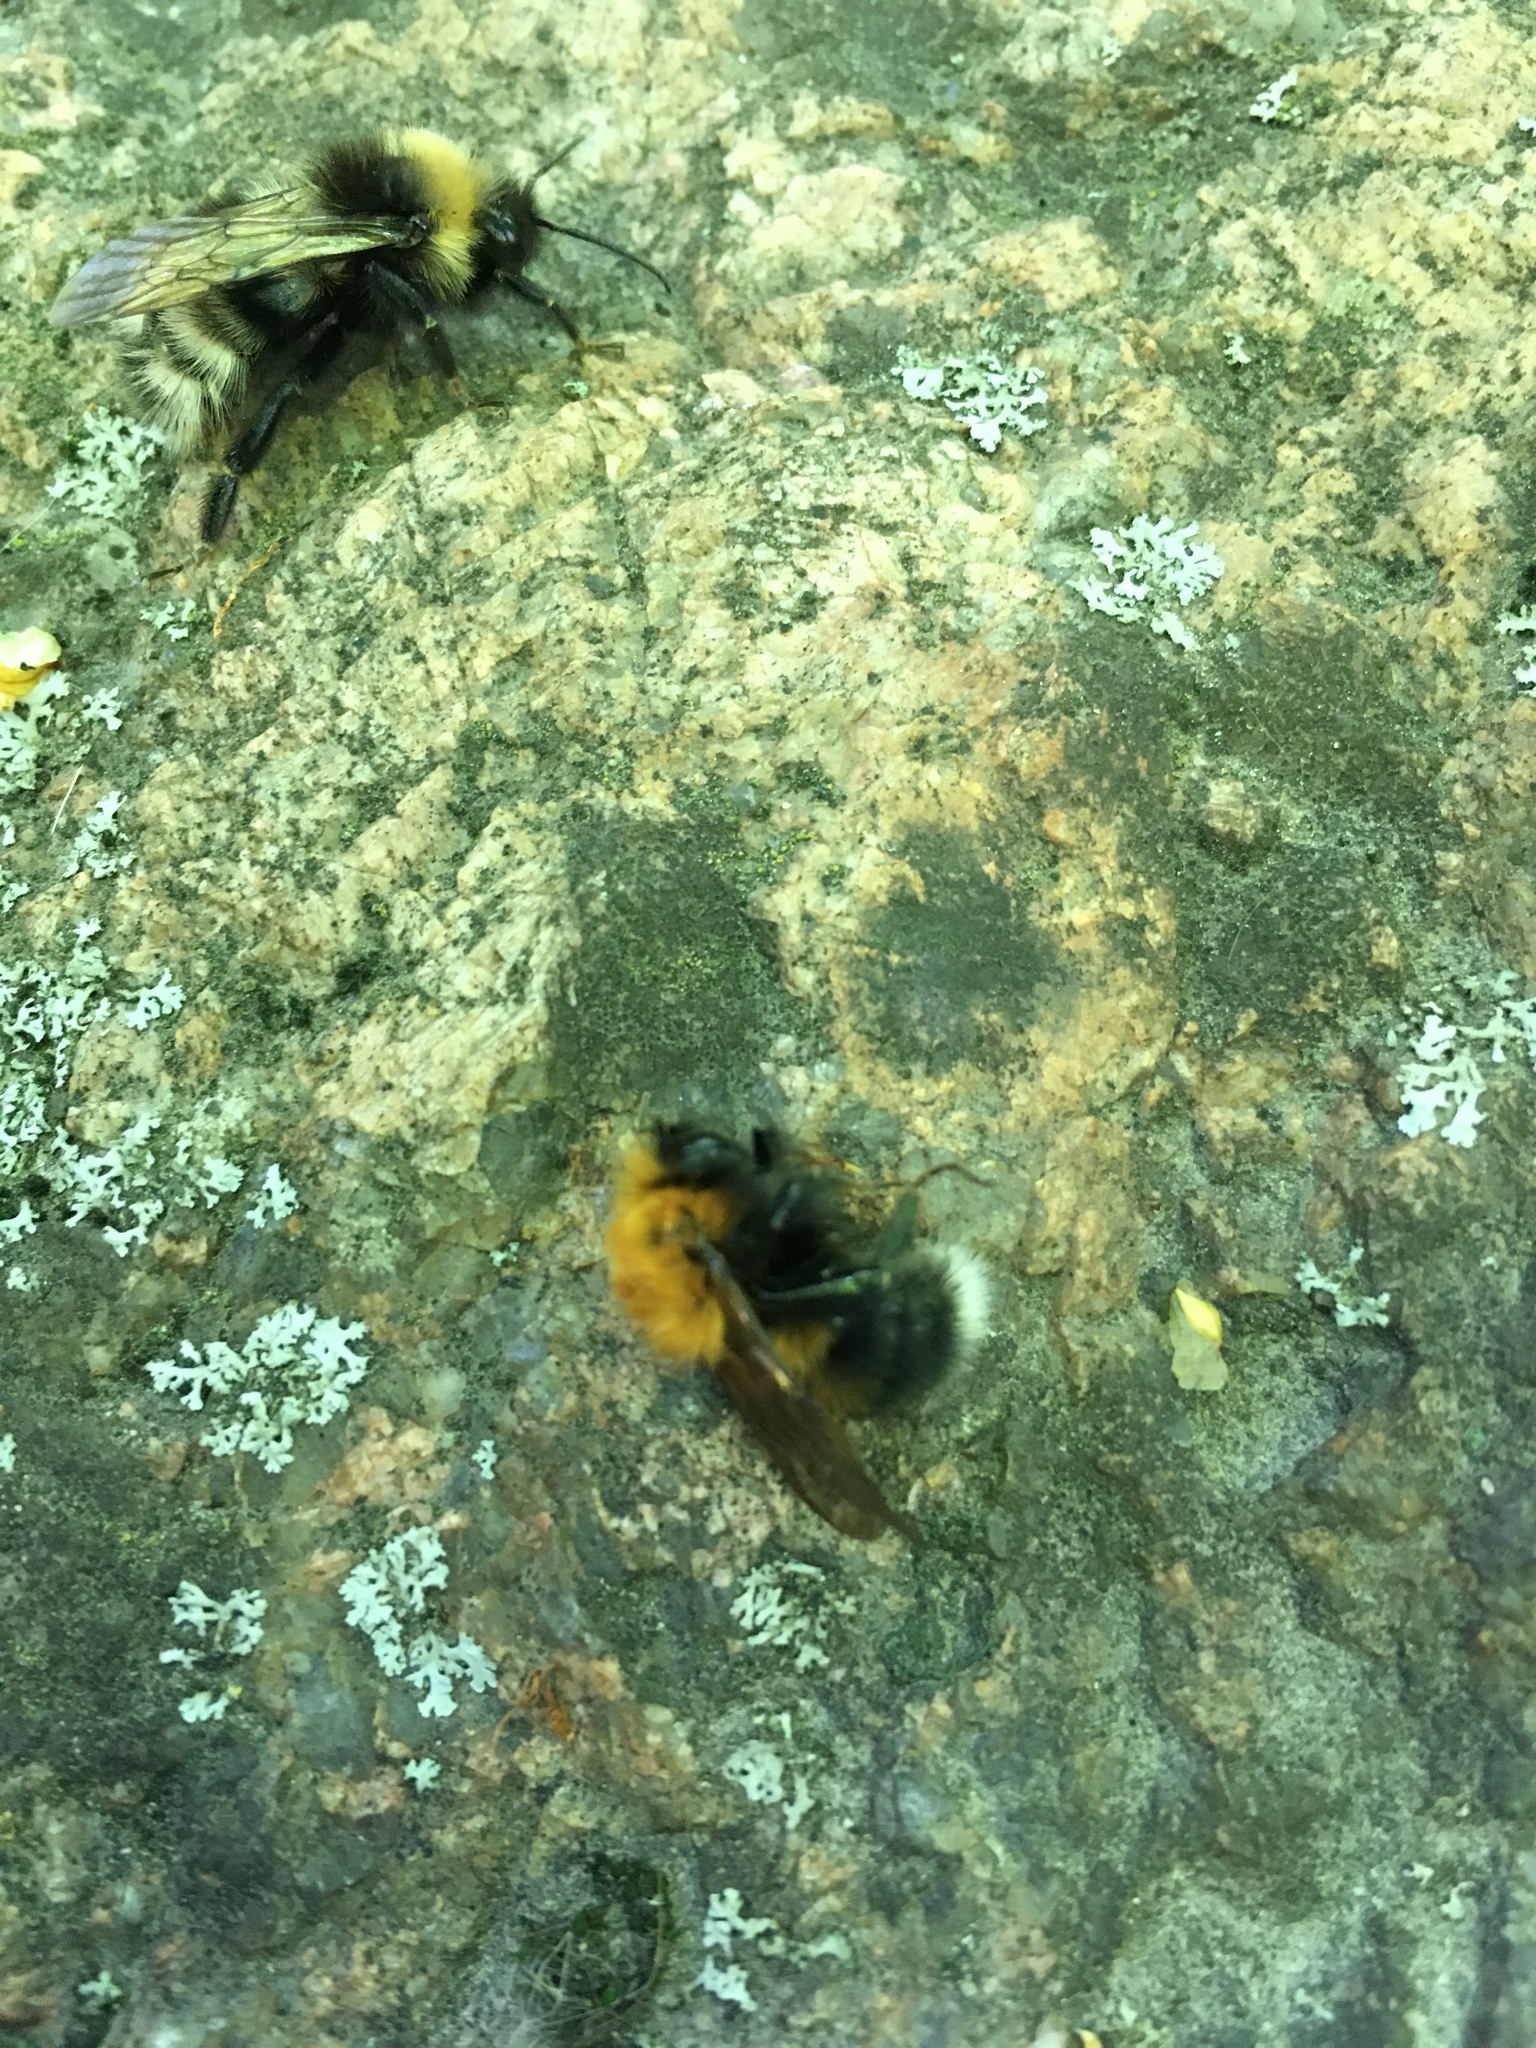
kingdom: Animalia
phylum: Arthropoda
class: Insecta
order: Hymenoptera
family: Apidae
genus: Bombus
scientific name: Bombus hypnorum
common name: New garden bumblebee
